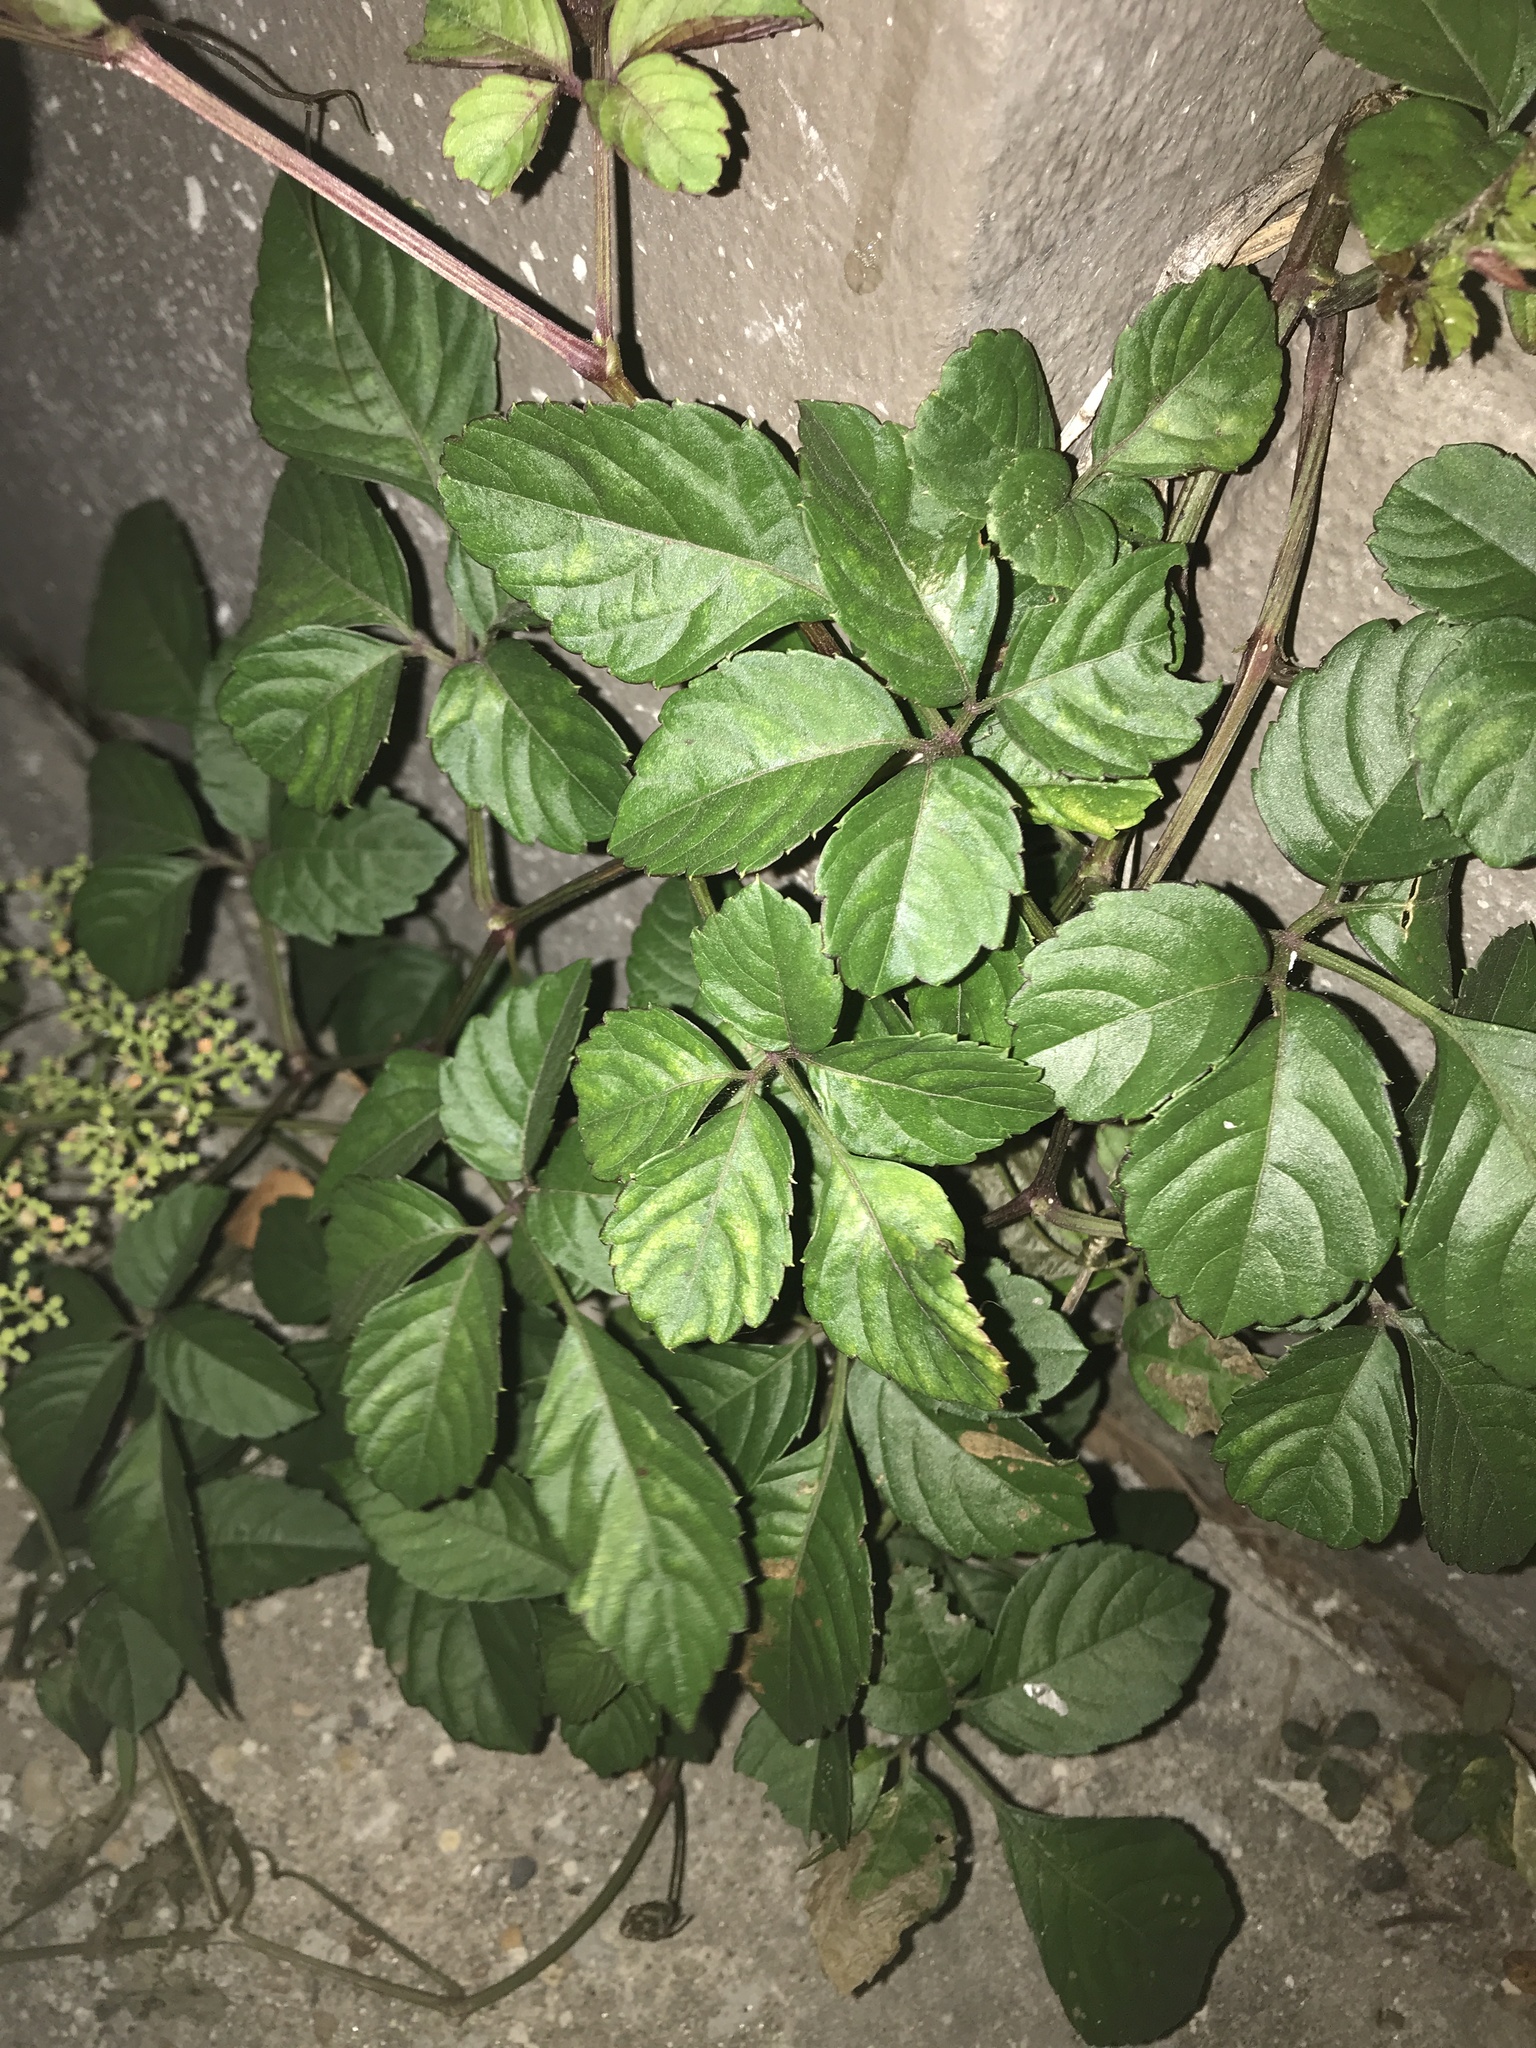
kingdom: Plantae
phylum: Tracheophyta
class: Magnoliopsida
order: Vitales
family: Vitaceae
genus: Causonis
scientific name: Causonis japonica
